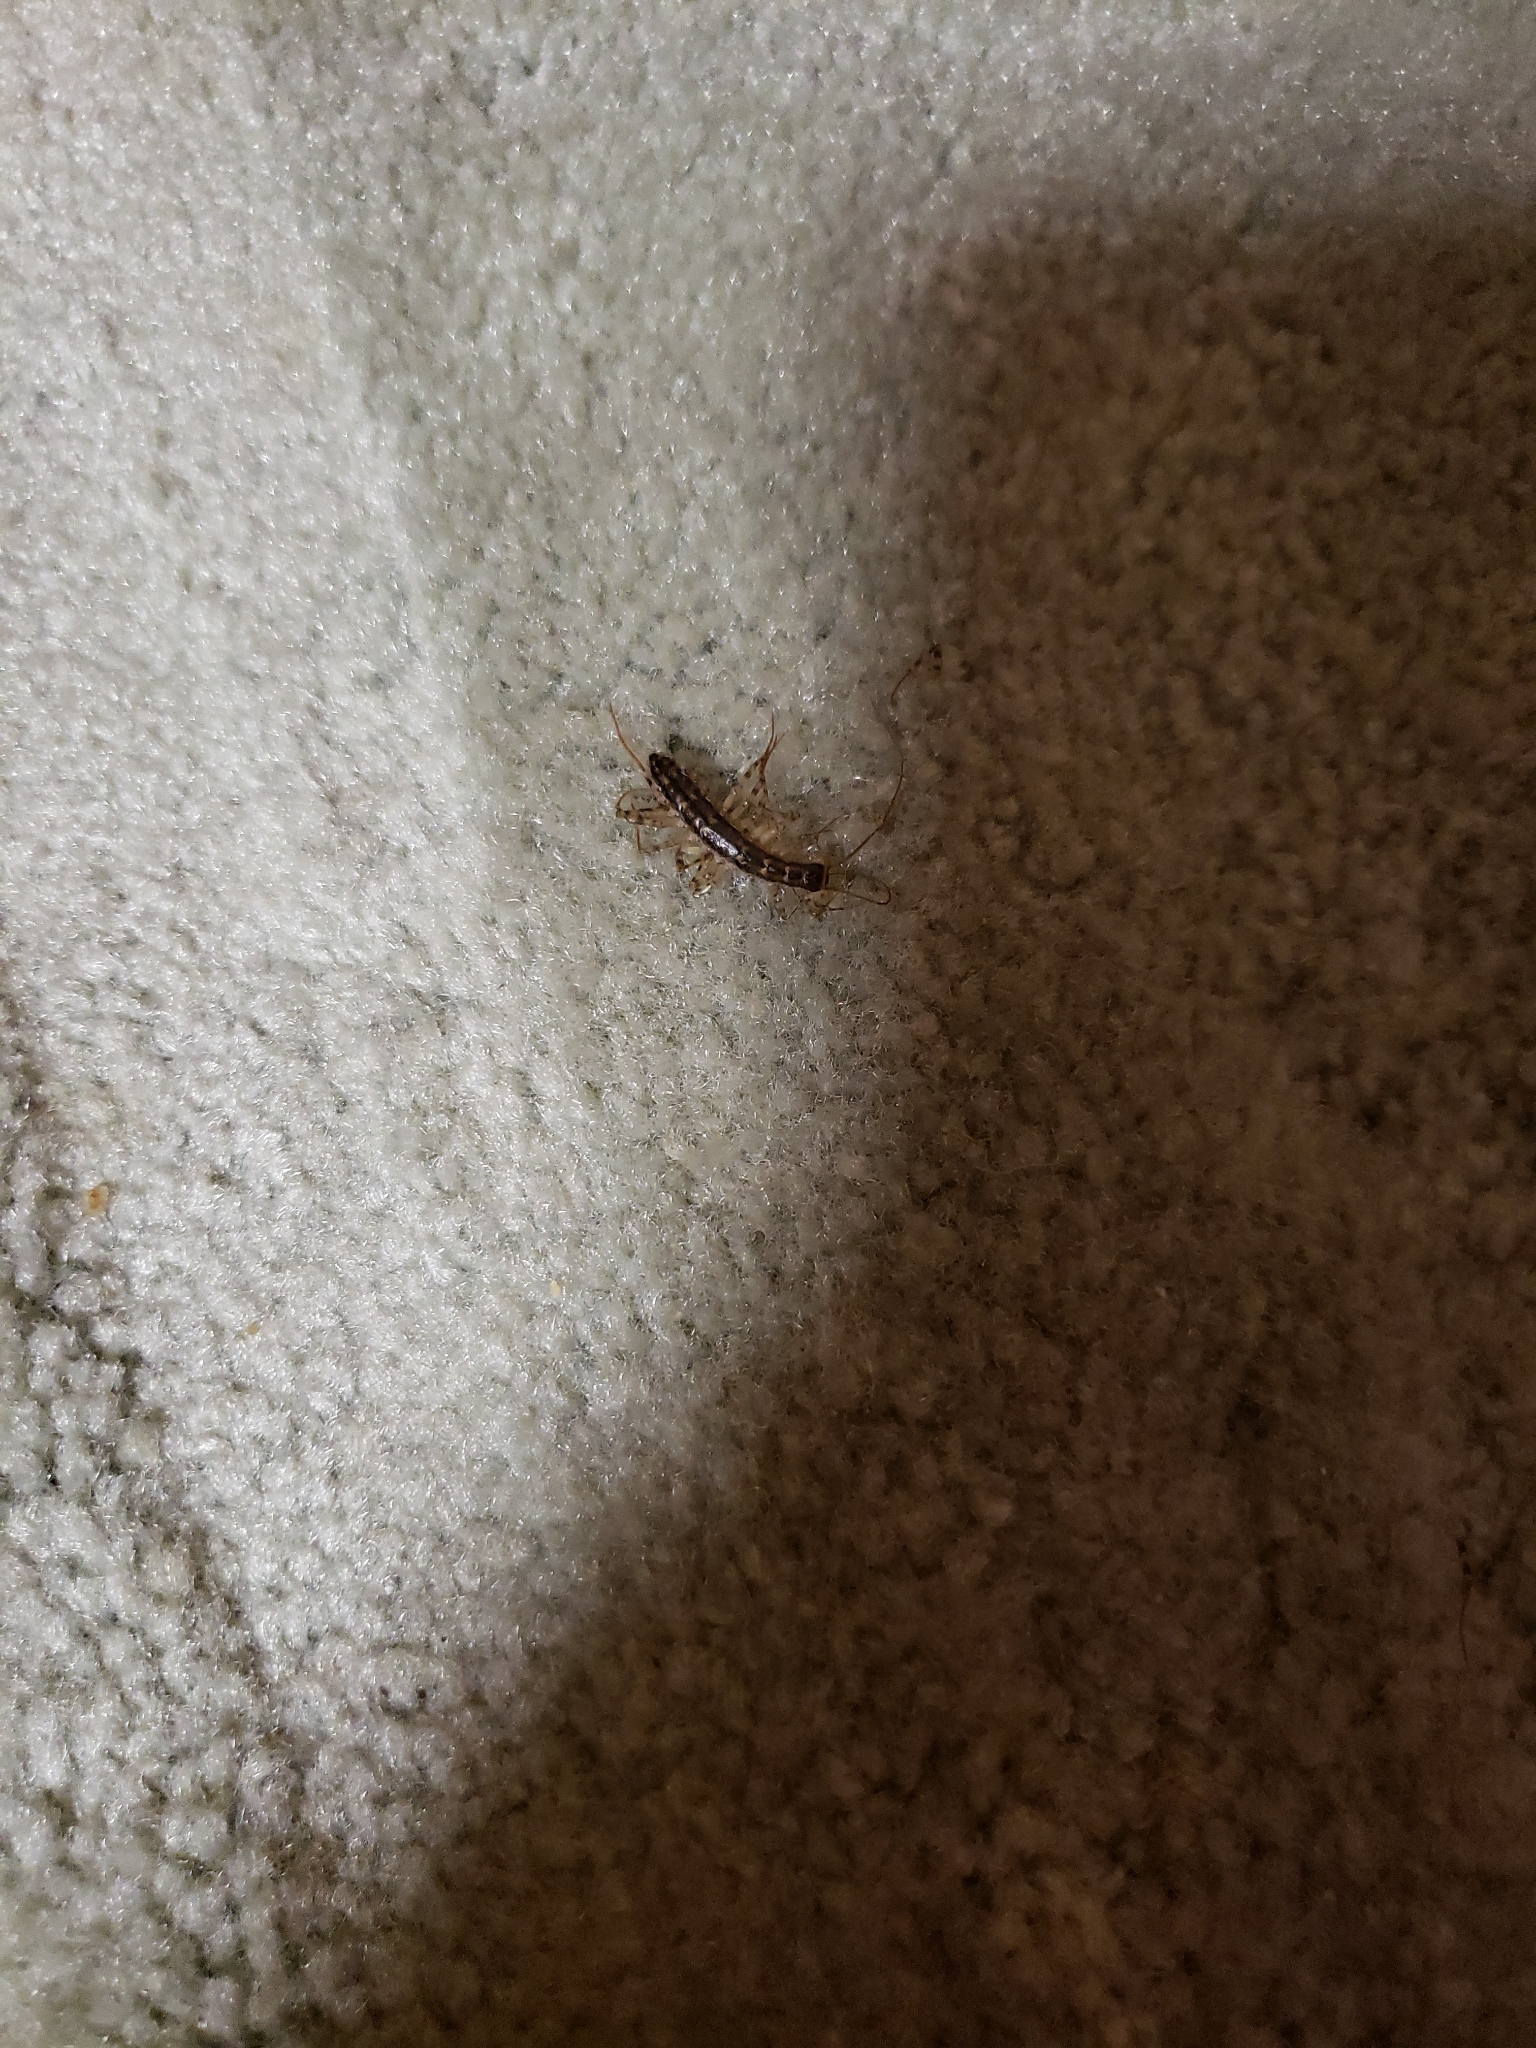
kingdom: Animalia
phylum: Arthropoda
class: Chilopoda
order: Scutigeromorpha
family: Scutigeridae
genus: Thereuonema
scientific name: Thereuonema tuberculata
